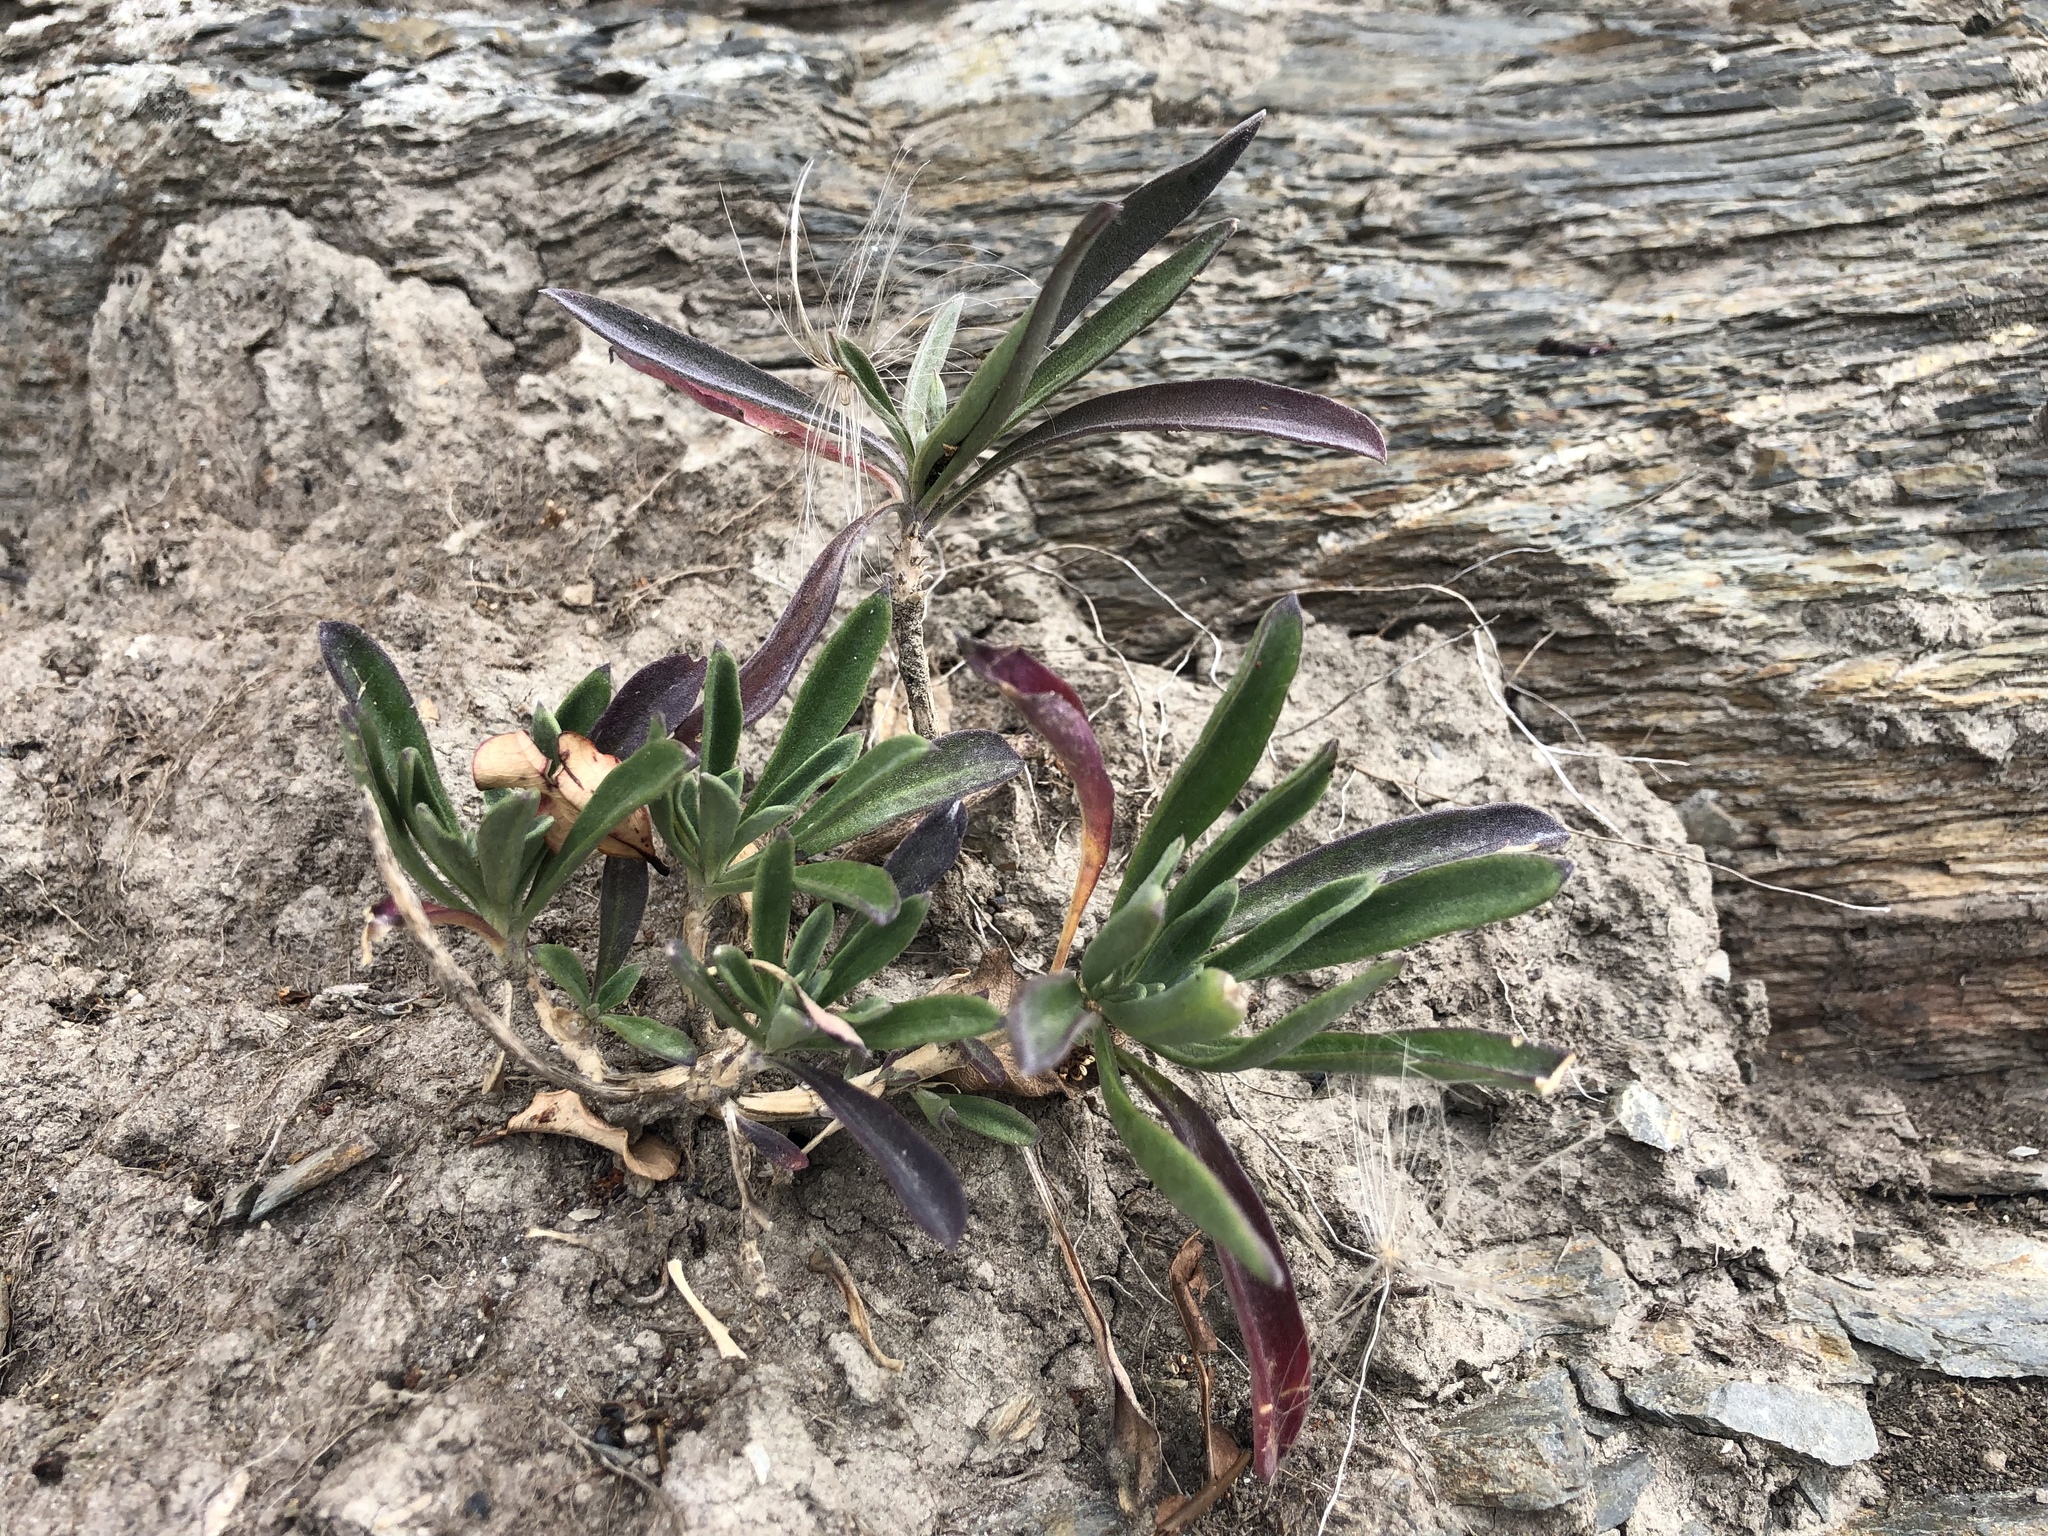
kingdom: Plantae
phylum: Tracheophyta
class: Magnoliopsida
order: Brassicales
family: Brassicaceae
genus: Erysimum
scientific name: Erysimum cheiri
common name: Wallflower
